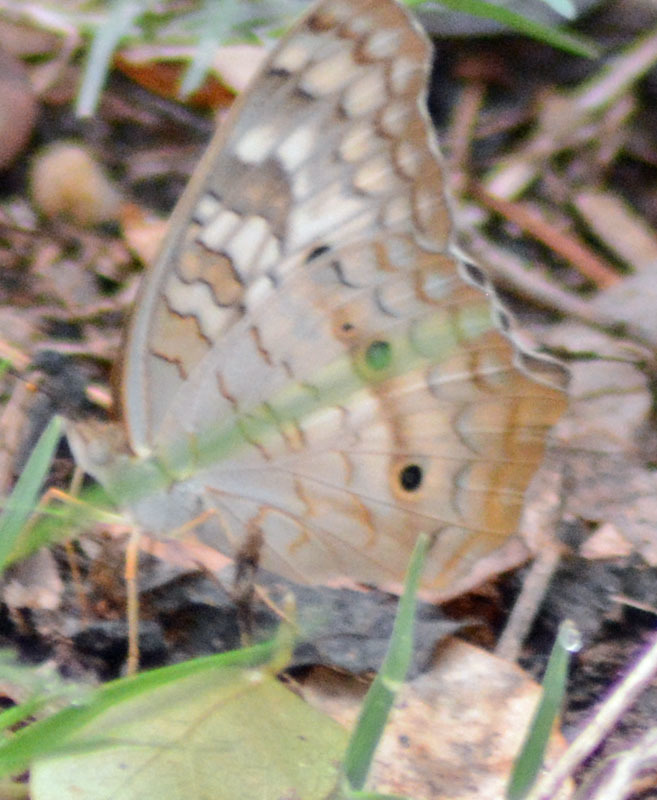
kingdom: Animalia
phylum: Arthropoda
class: Insecta
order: Lepidoptera
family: Nymphalidae
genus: Anartia
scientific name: Anartia jatrophae
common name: White peacock
